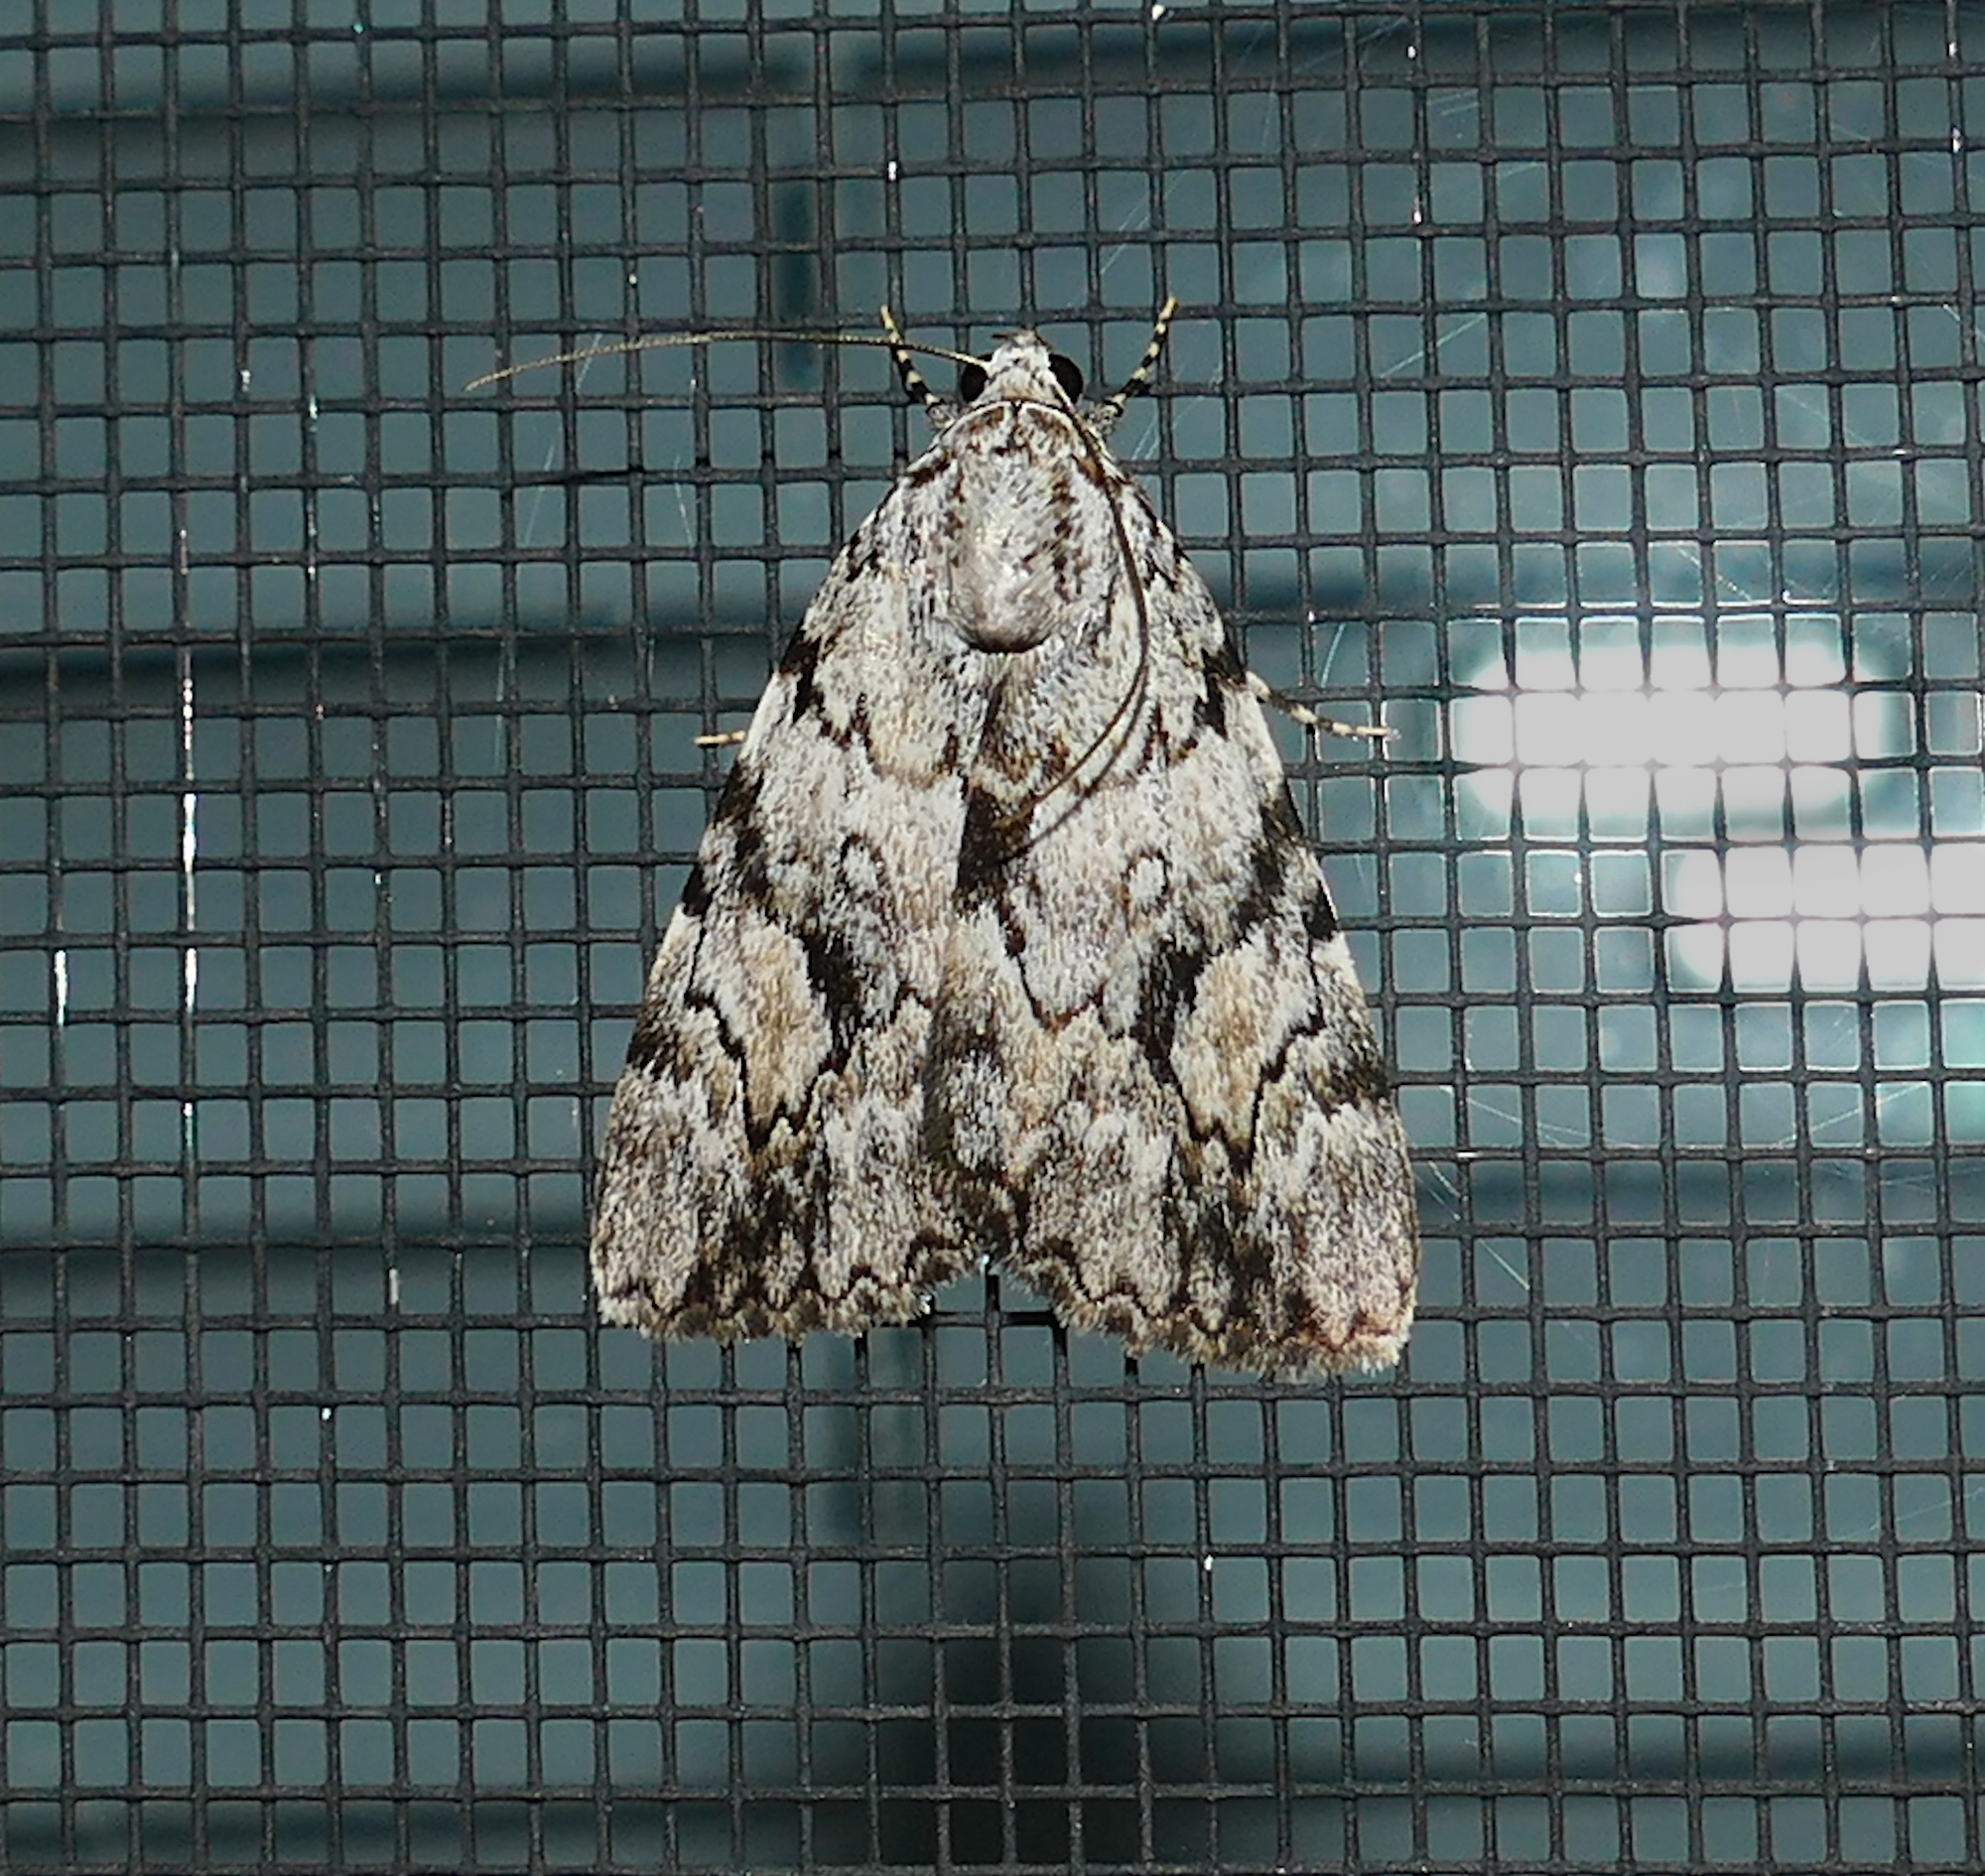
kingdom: Animalia
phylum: Arthropoda
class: Insecta
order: Lepidoptera
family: Erebidae
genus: Catocala
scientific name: Catocala amica
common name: Girlfriend underwing
